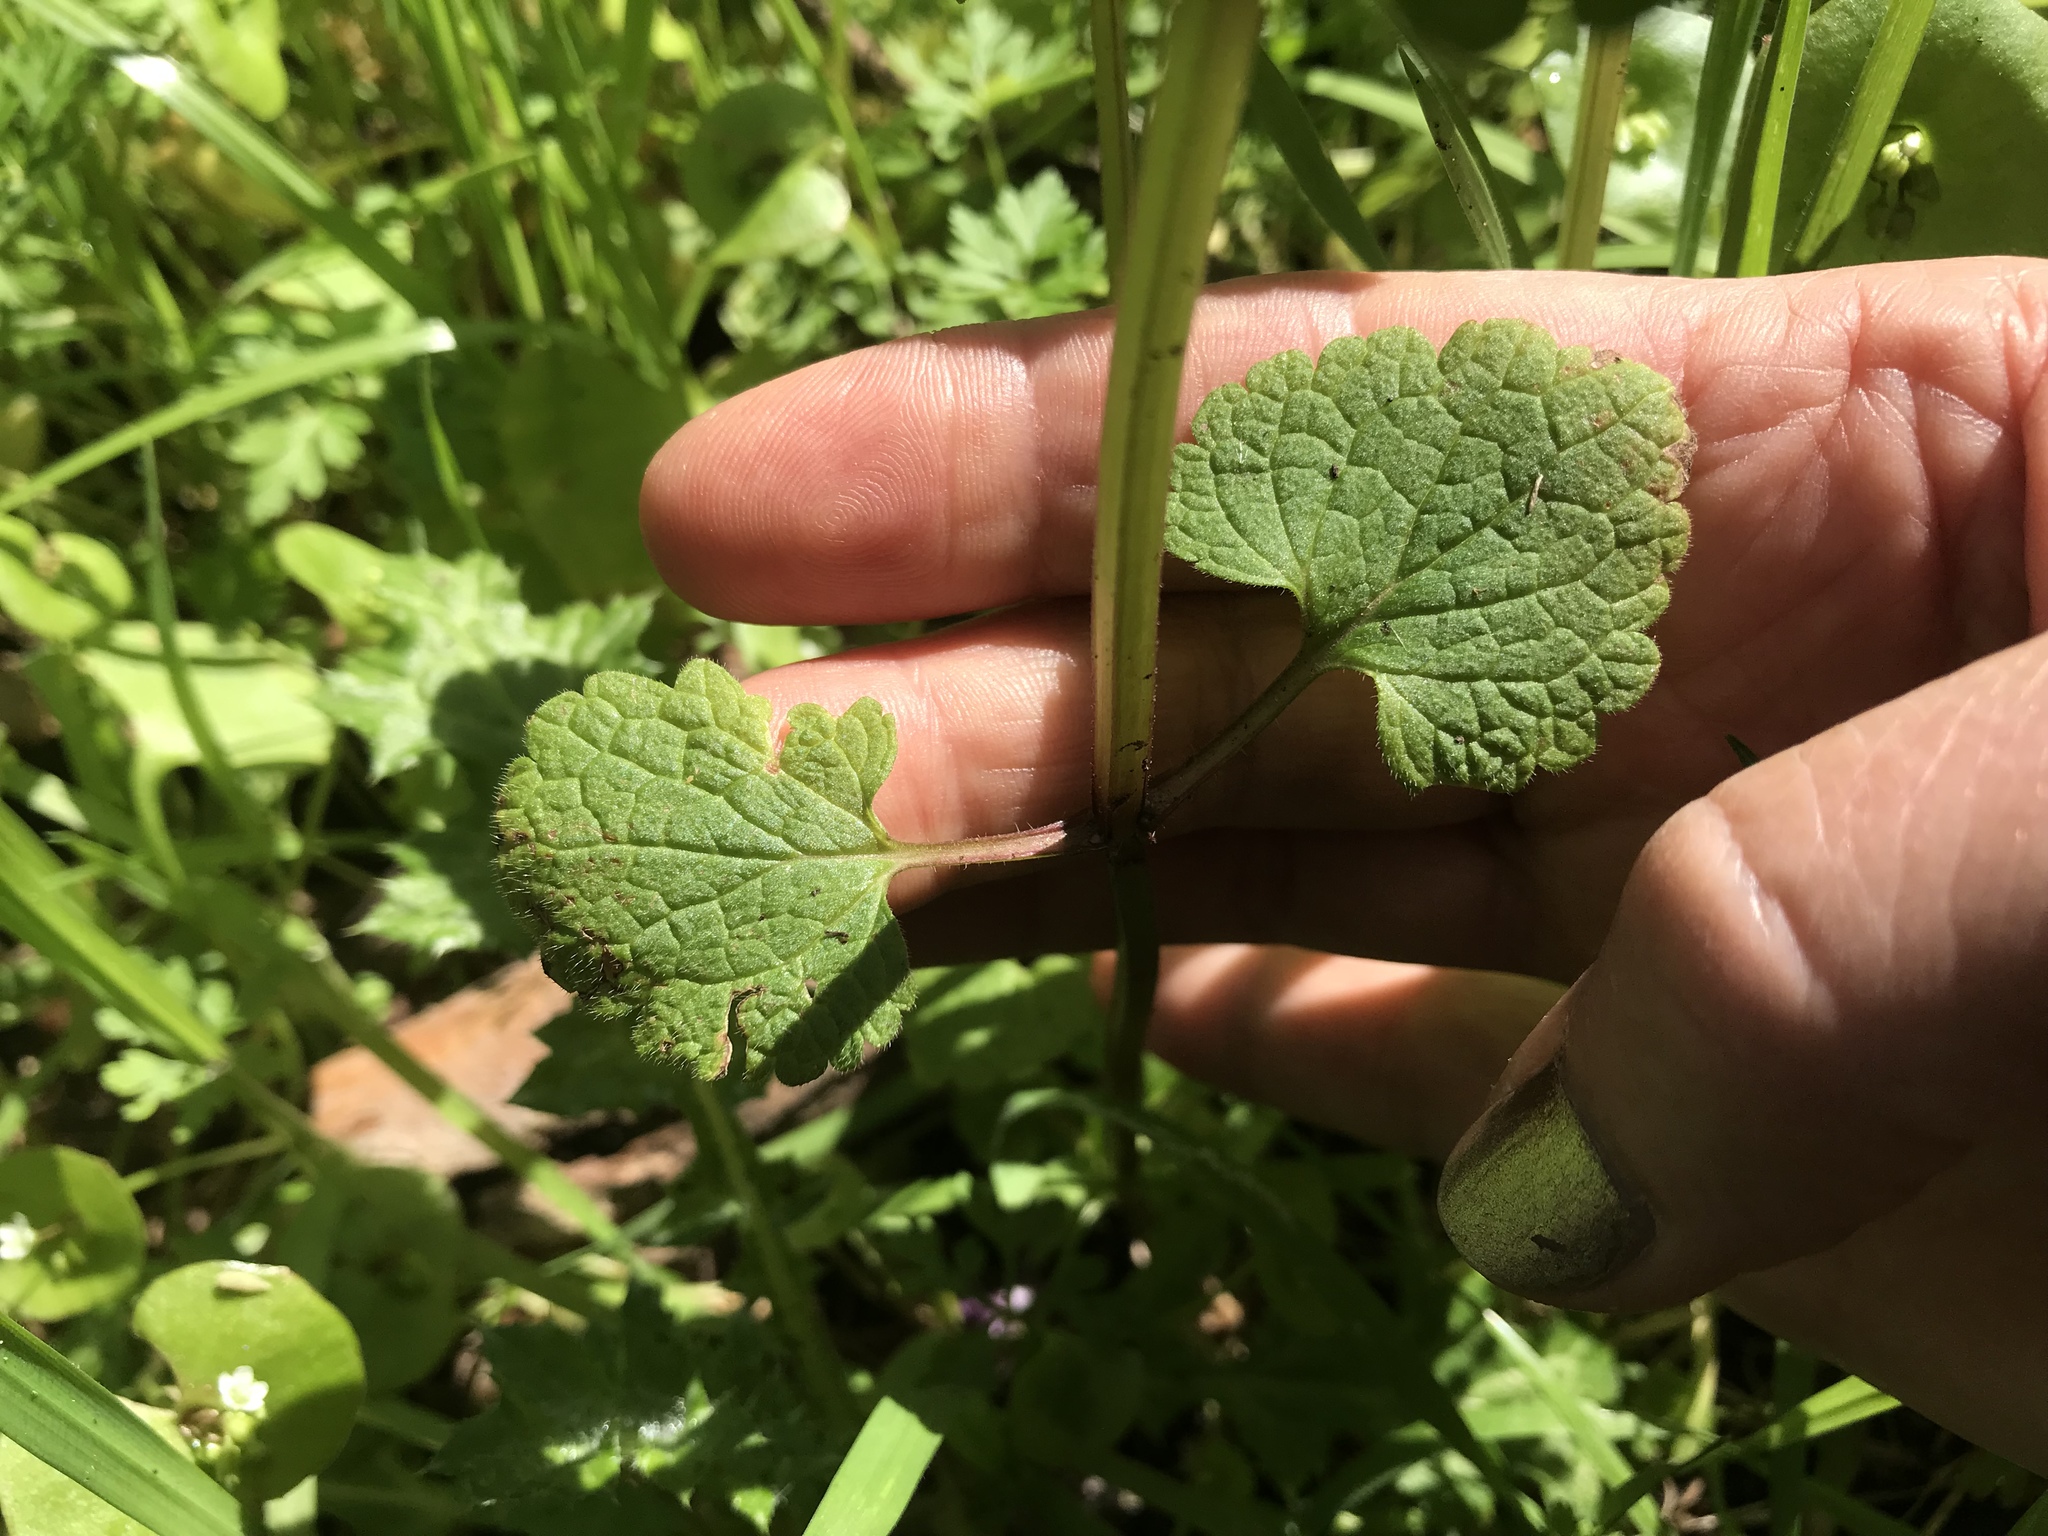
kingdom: Plantae
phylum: Tracheophyta
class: Magnoliopsida
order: Lamiales
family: Lamiaceae
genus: Lamium
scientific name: Lamium purpureum
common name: Red dead-nettle
